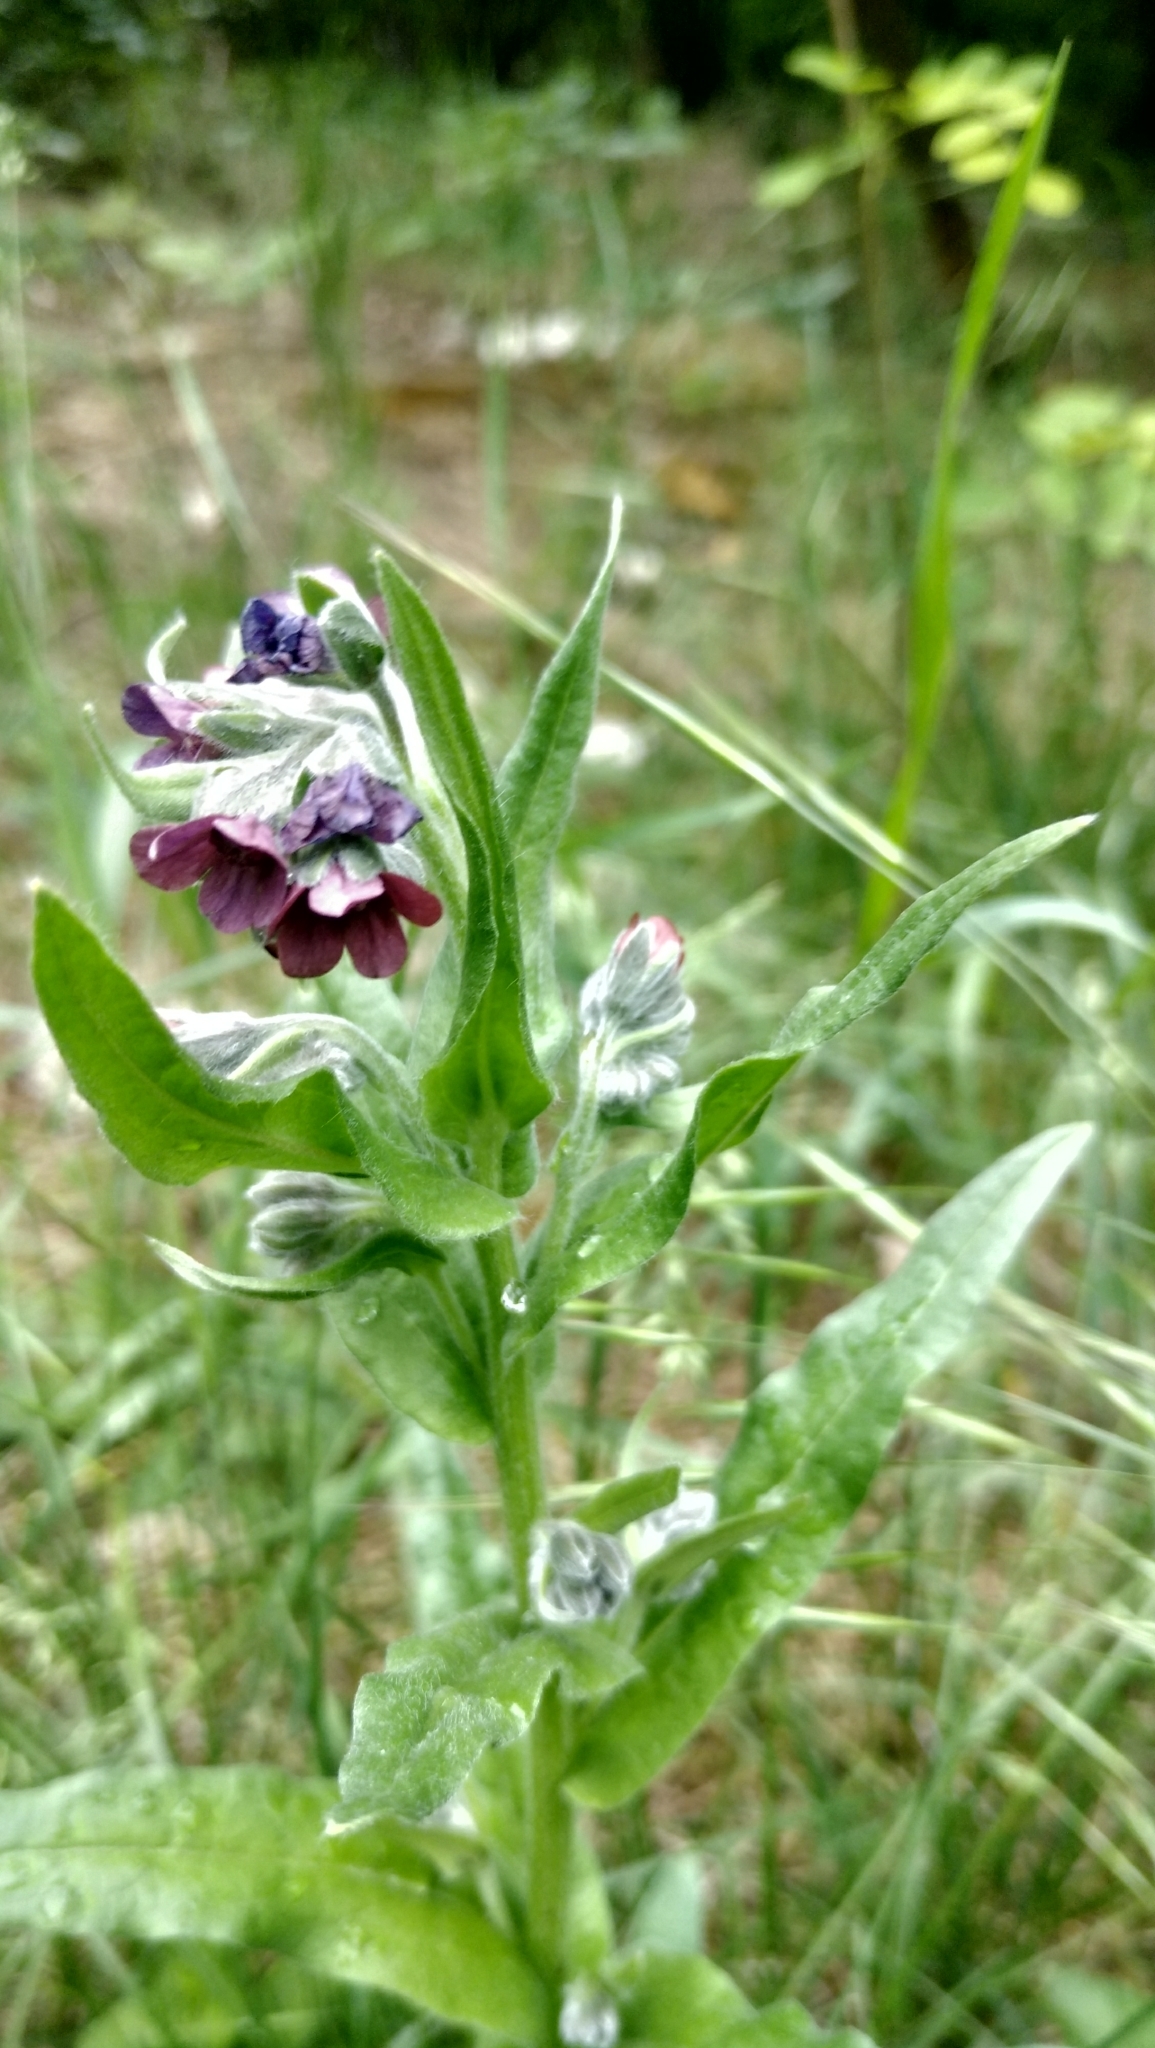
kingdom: Plantae
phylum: Tracheophyta
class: Magnoliopsida
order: Boraginales
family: Boraginaceae
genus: Cynoglossum
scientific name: Cynoglossum officinale
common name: Hound's-tongue
